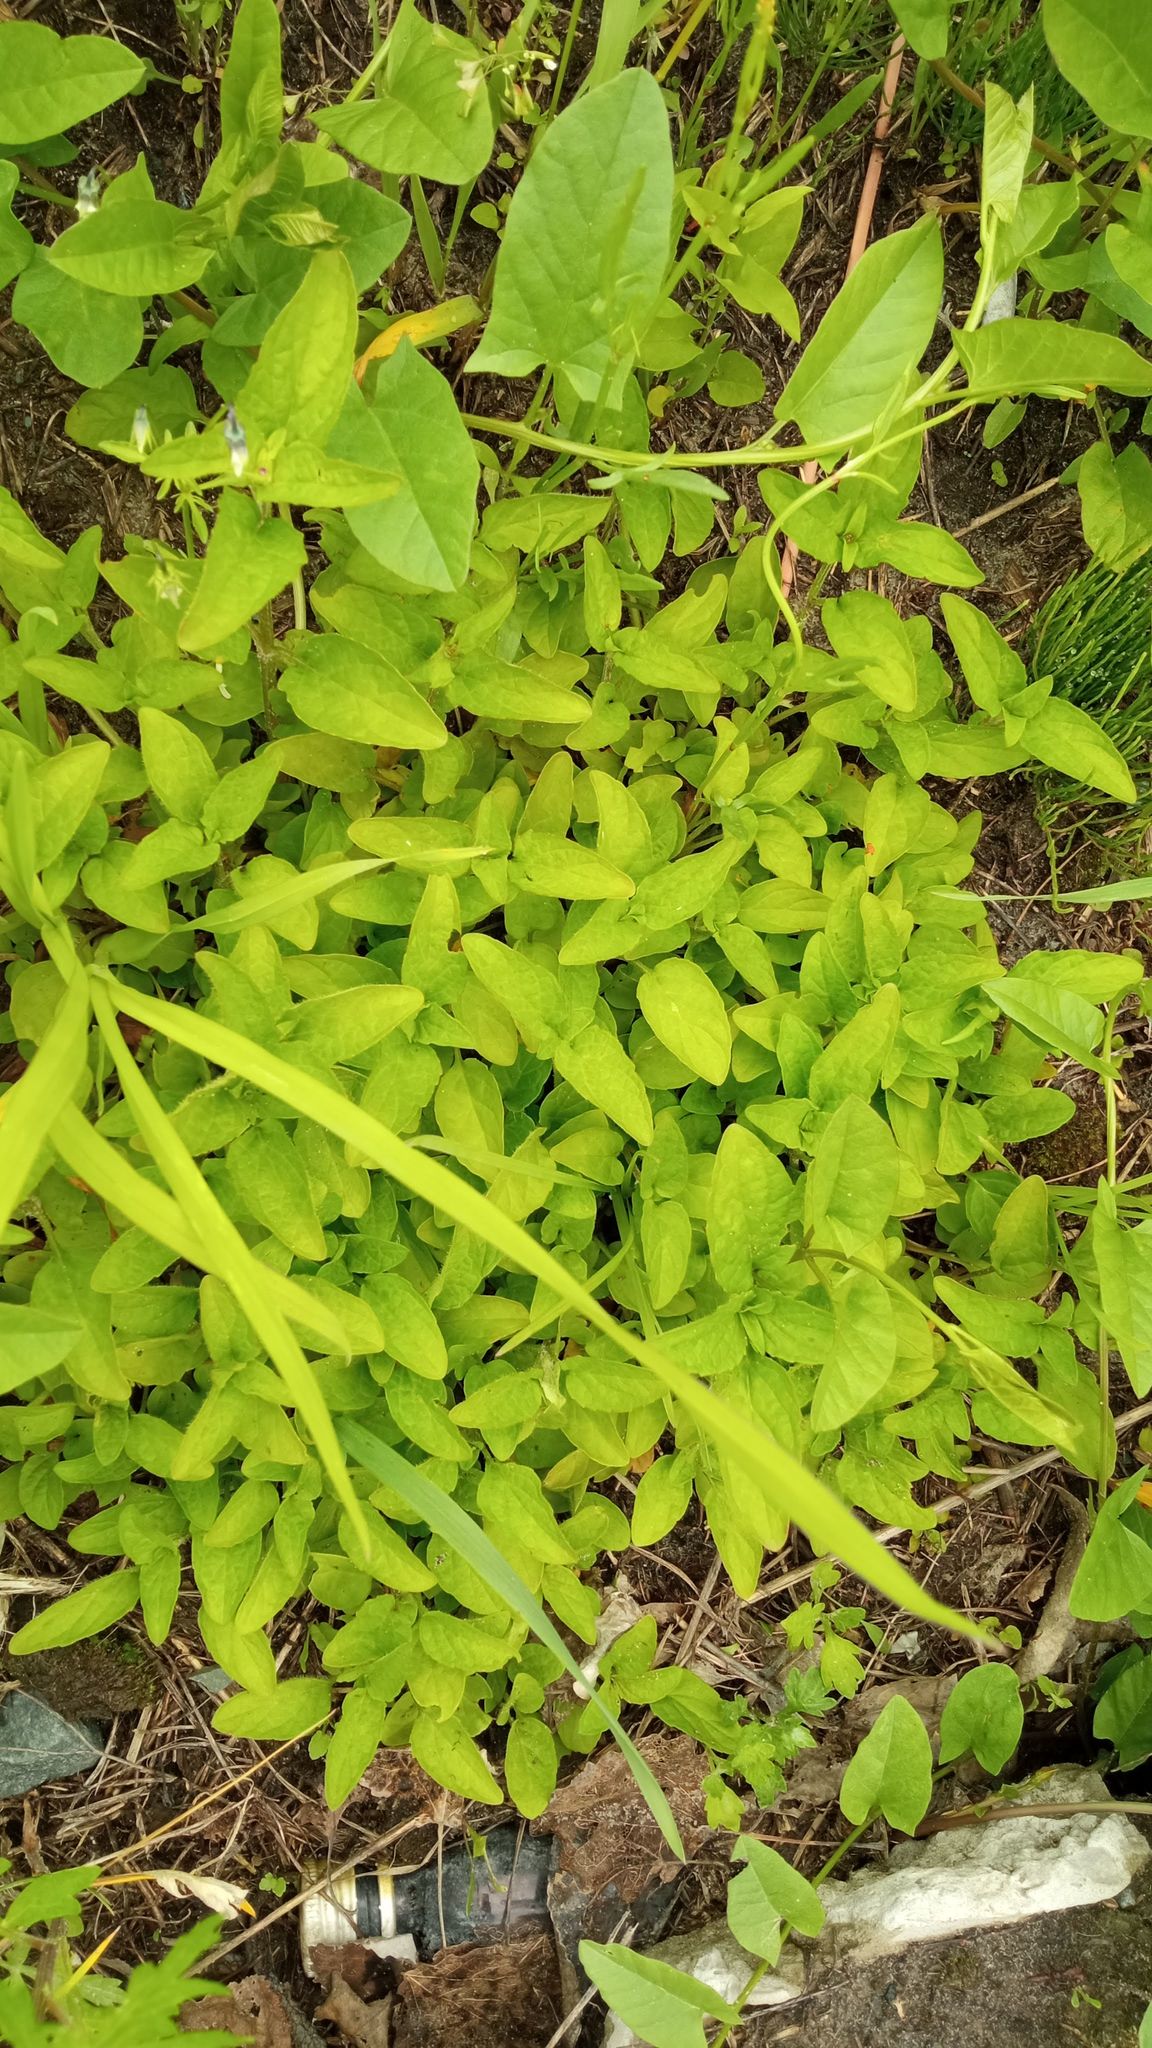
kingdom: Plantae
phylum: Tracheophyta
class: Magnoliopsida
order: Lamiales
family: Lamiaceae
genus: Prunella
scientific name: Prunella vulgaris
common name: Heal-all
